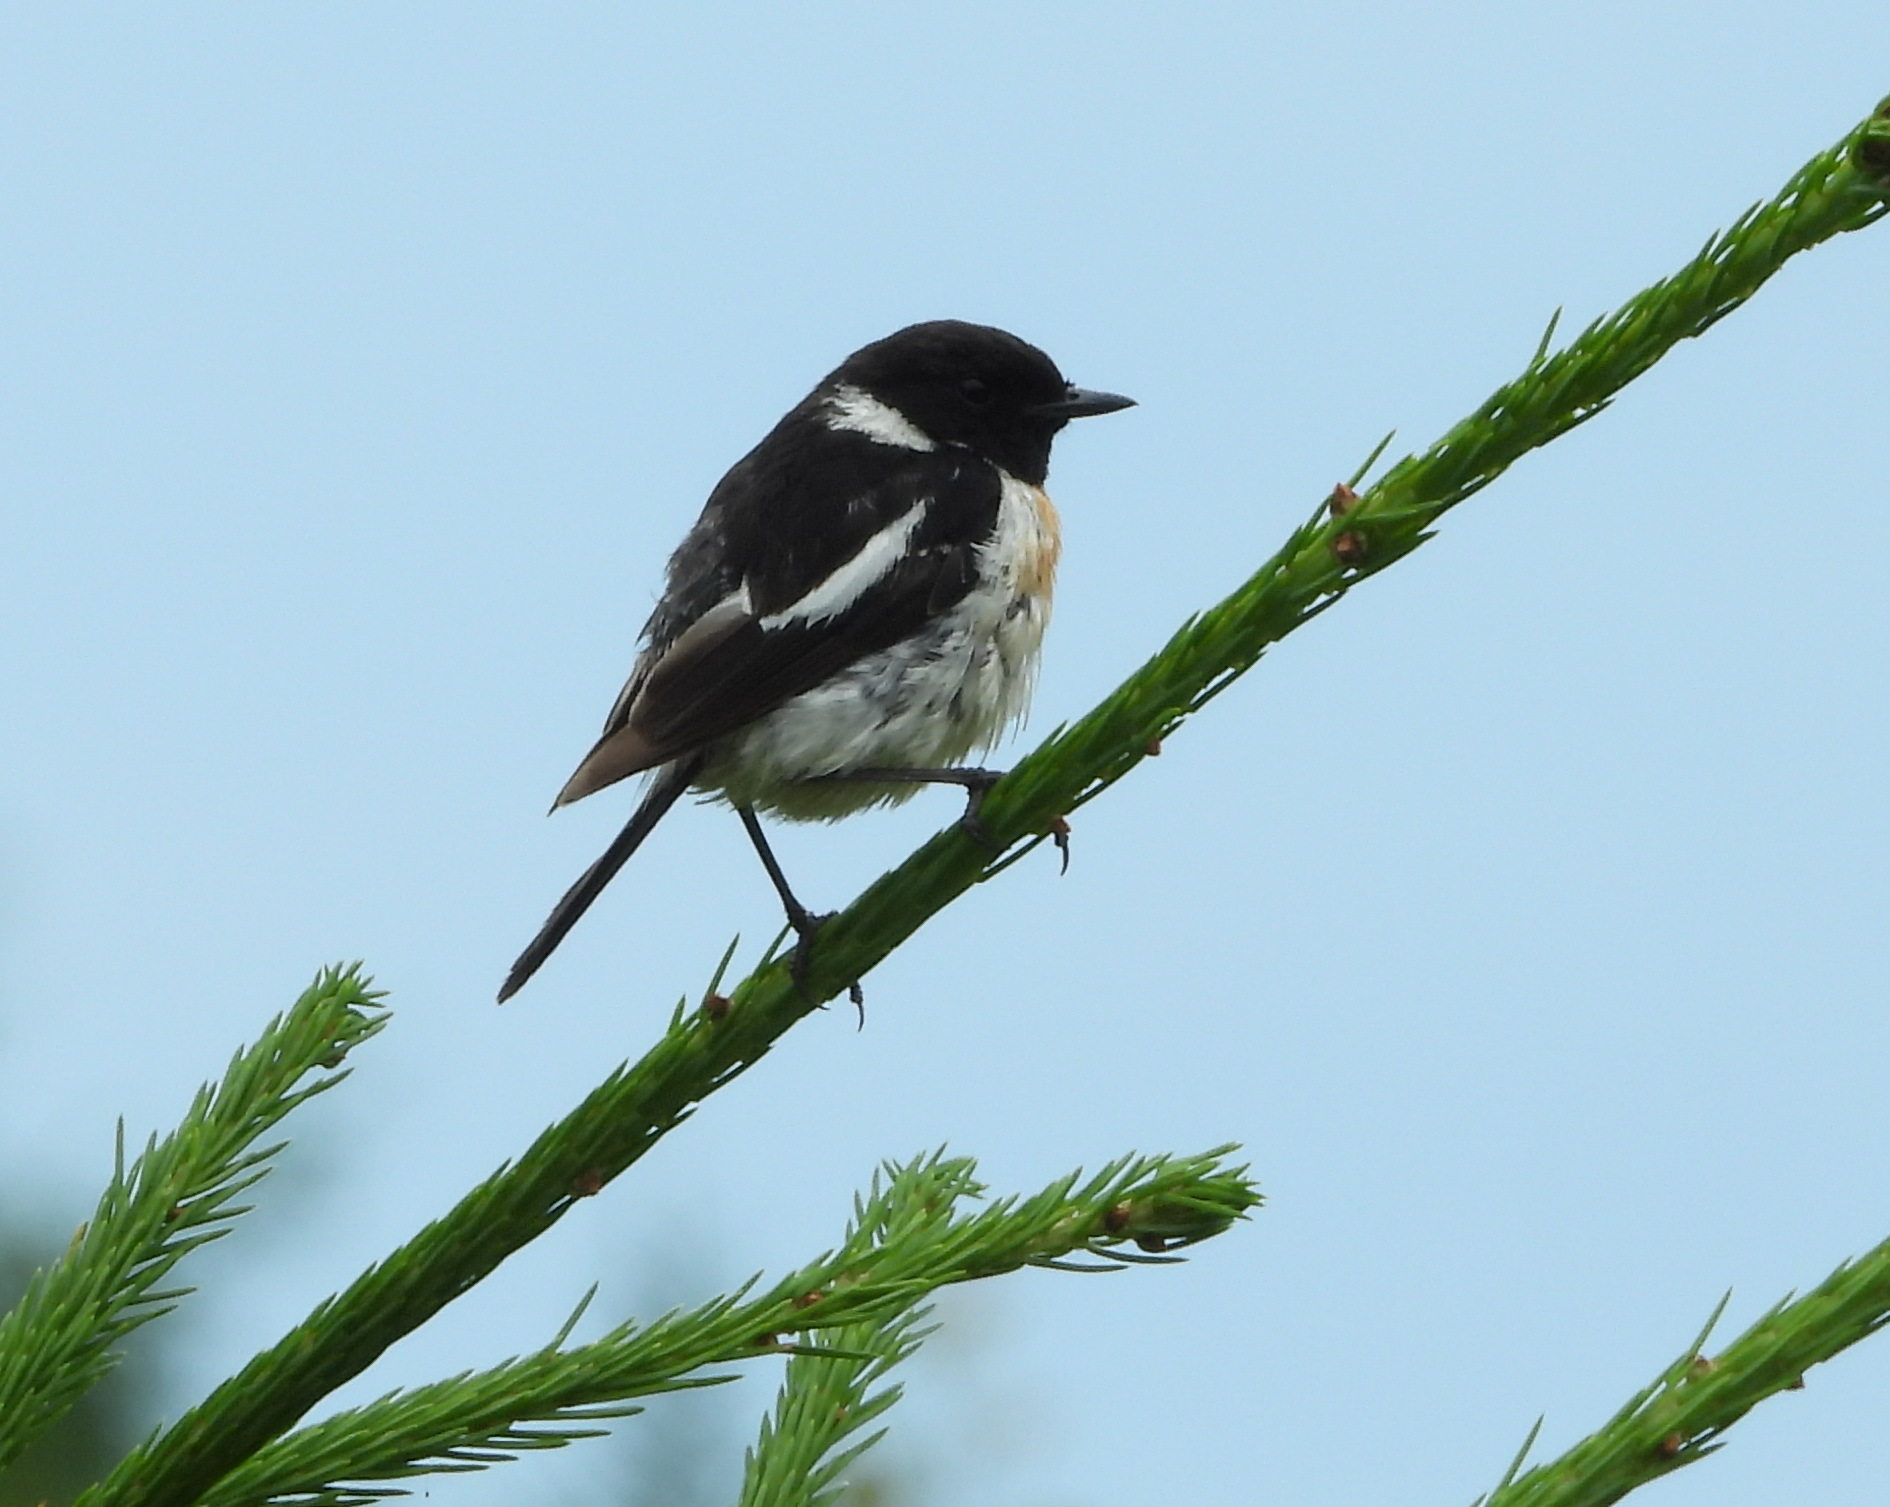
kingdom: Animalia
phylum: Chordata
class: Aves
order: Passeriformes
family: Muscicapidae
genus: Saxicola
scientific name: Saxicola maurus
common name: Siberian stonechat
